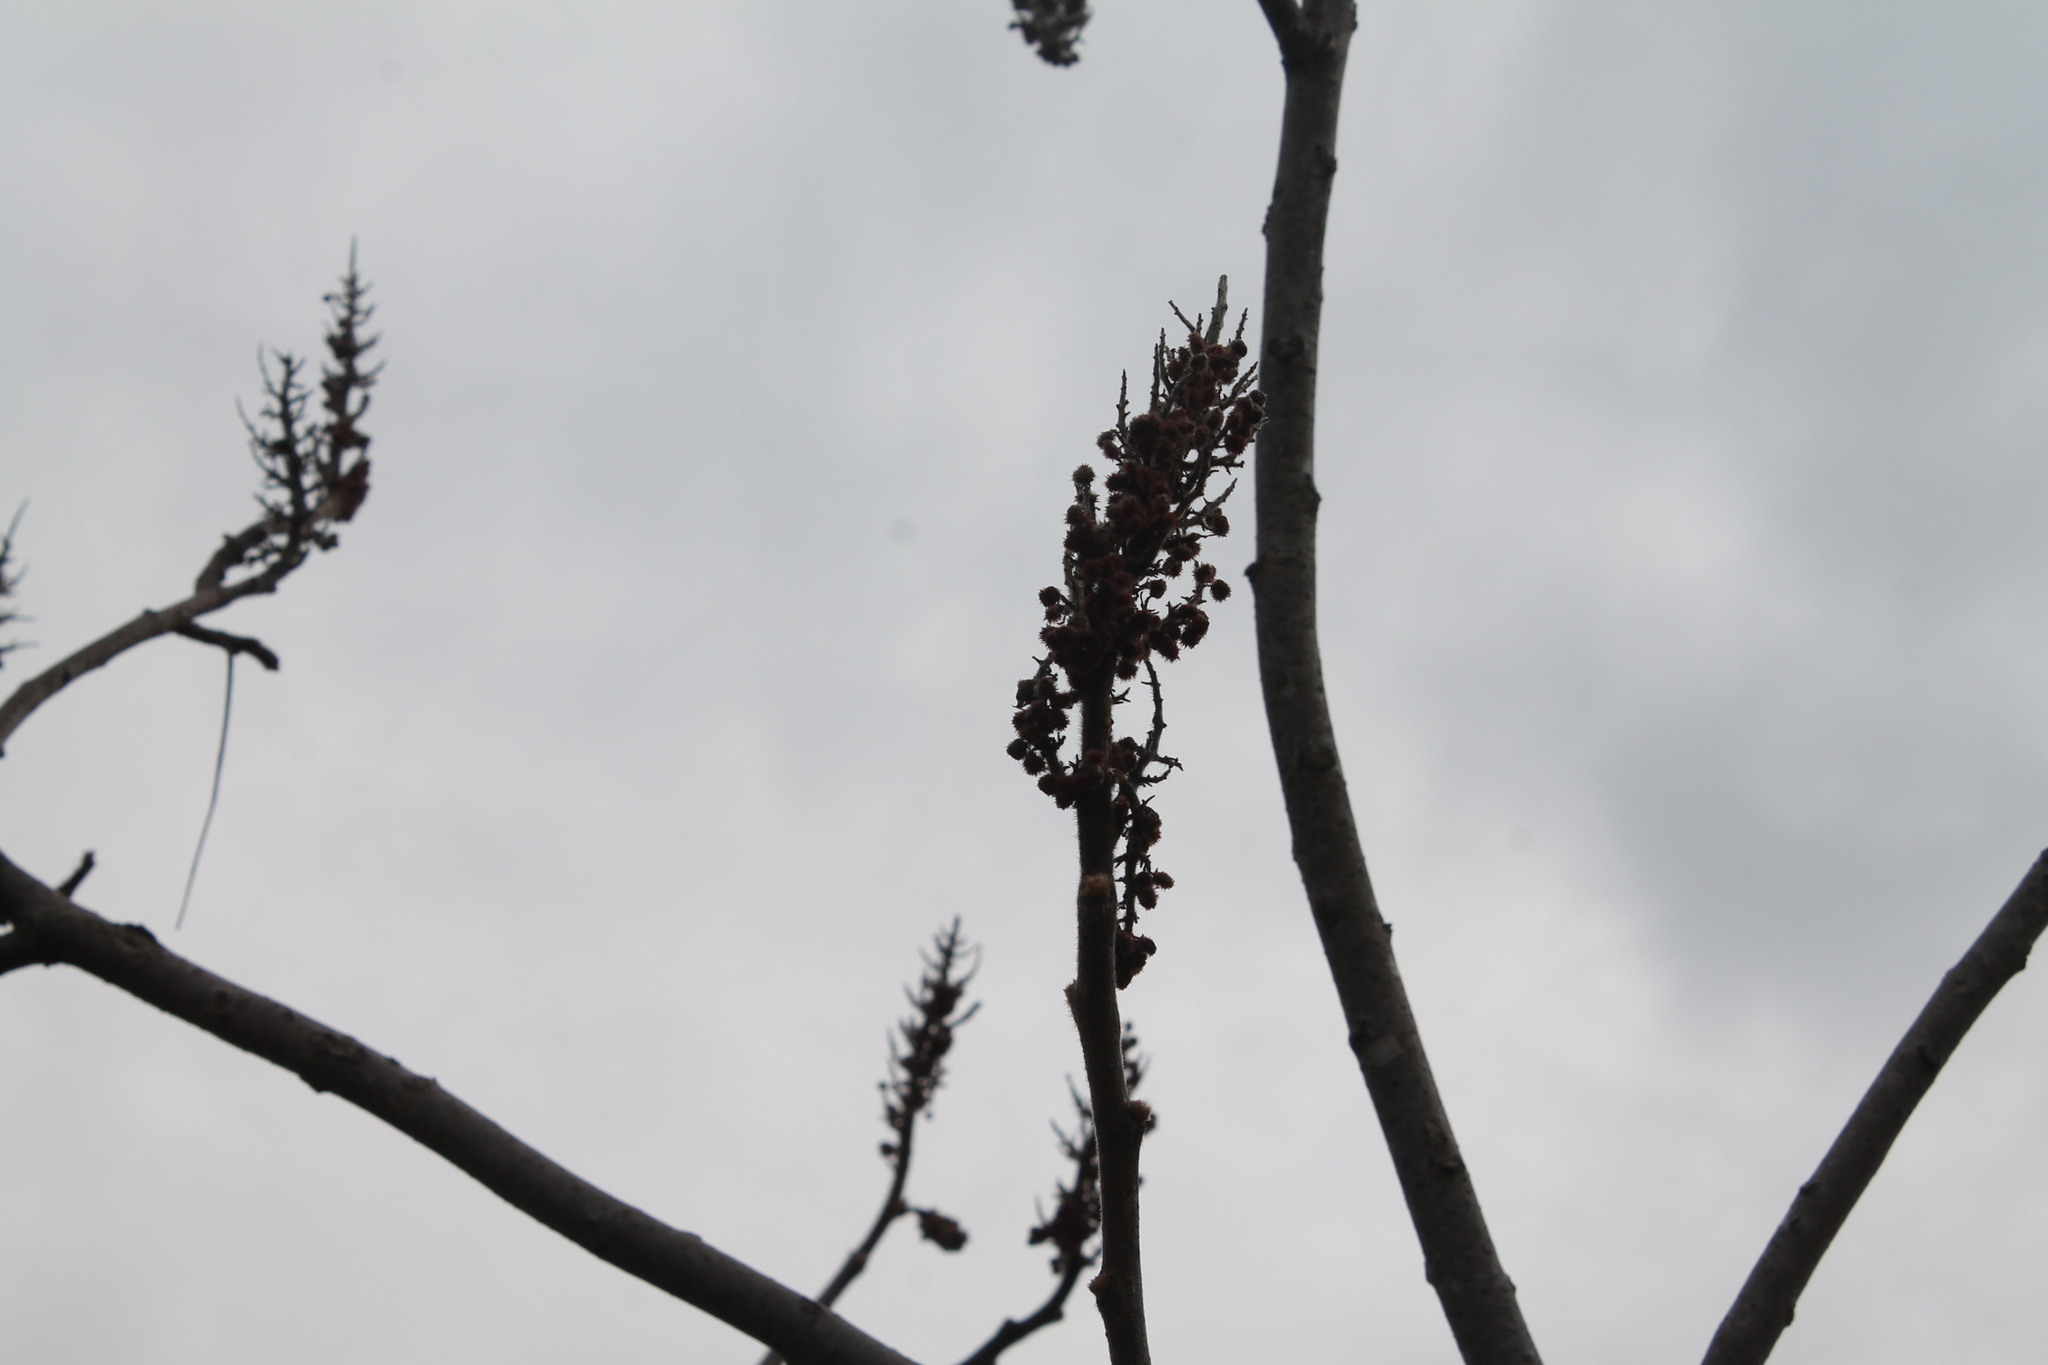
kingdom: Plantae
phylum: Tracheophyta
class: Magnoliopsida
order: Sapindales
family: Anacardiaceae
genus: Rhus
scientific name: Rhus typhina
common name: Staghorn sumac
